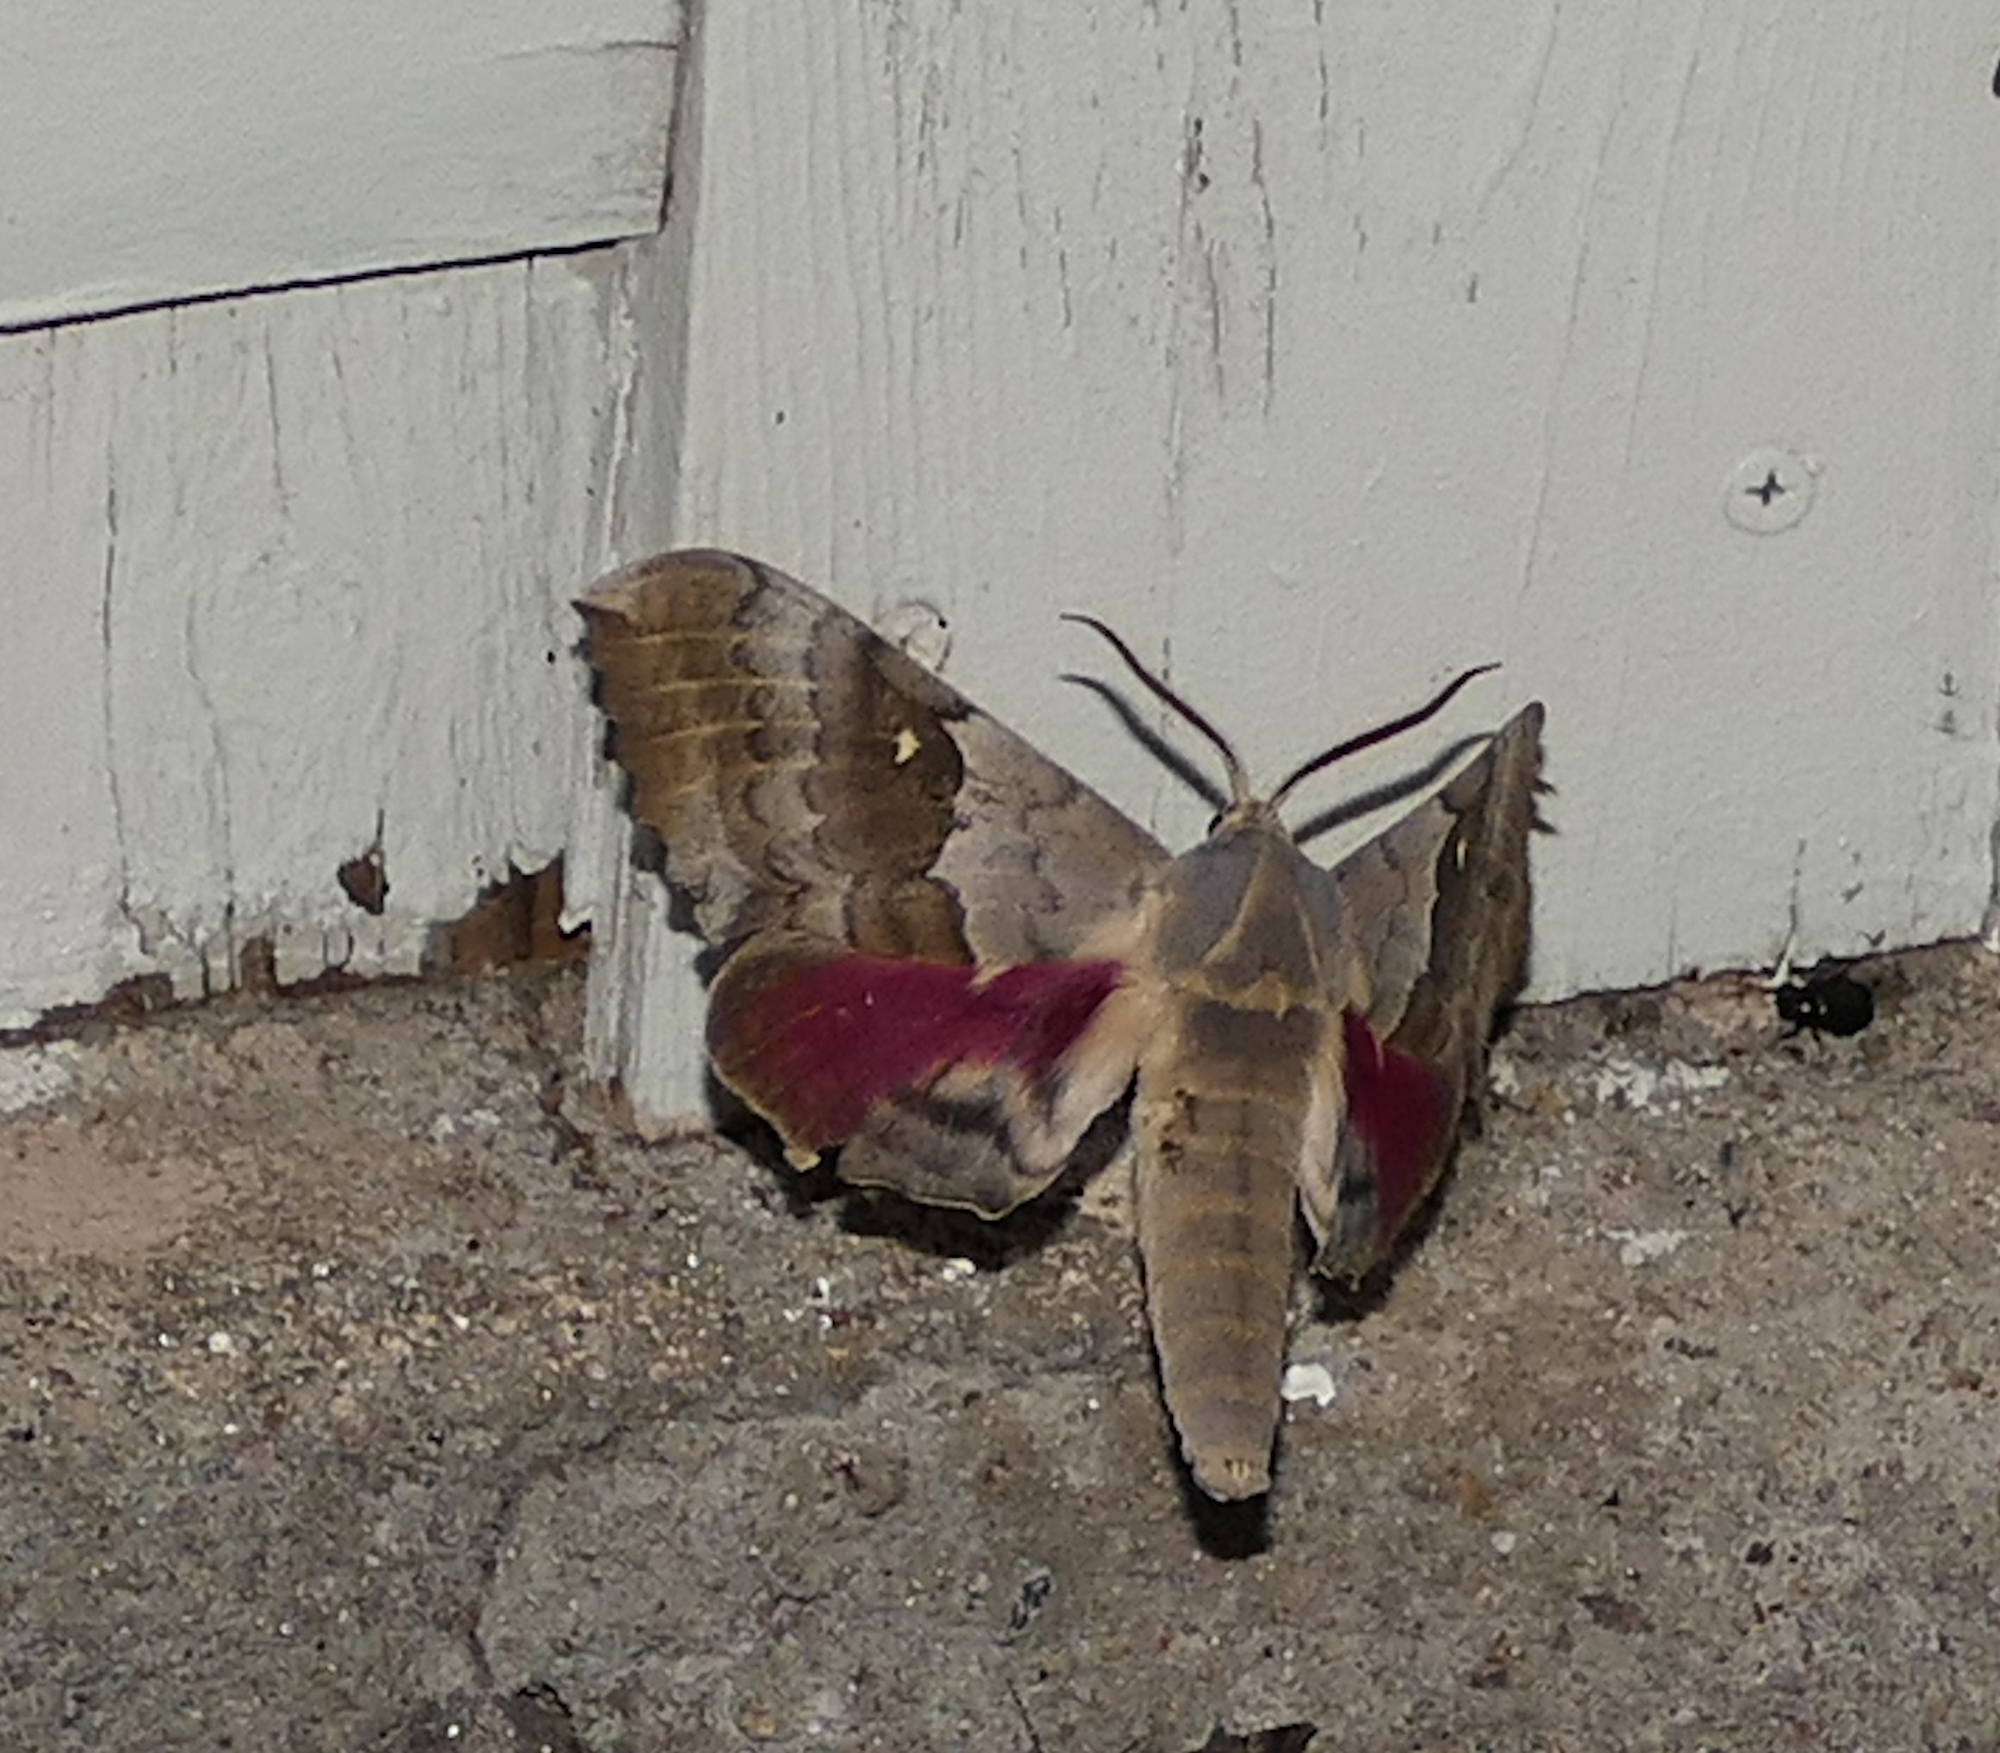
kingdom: Animalia
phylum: Arthropoda
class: Insecta
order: Lepidoptera
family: Sphingidae
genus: Pachysphinx
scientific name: Pachysphinx occidentalis
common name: Western poplar sphinx
